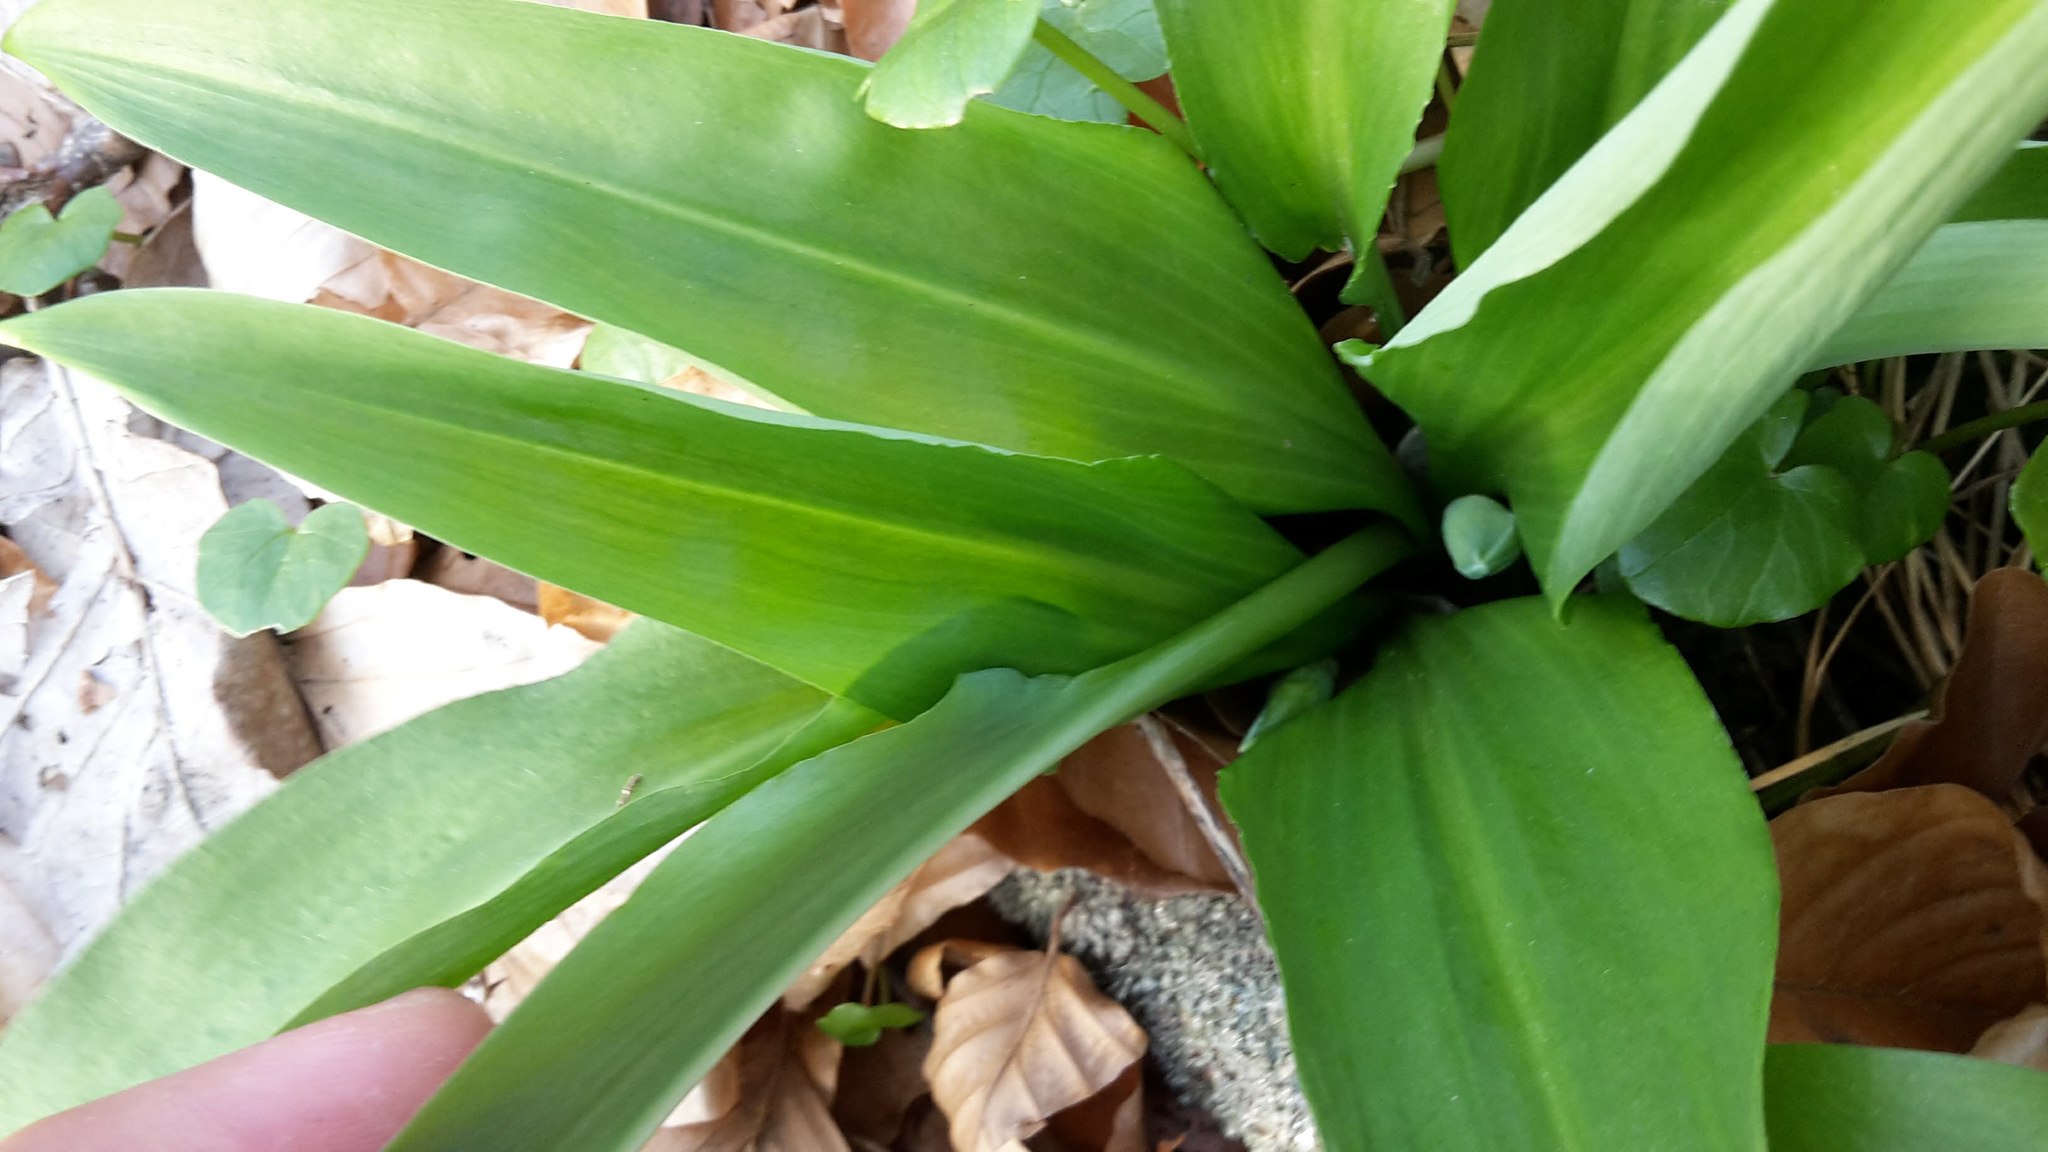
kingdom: Plantae
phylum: Tracheophyta
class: Liliopsida
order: Asparagales
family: Amaryllidaceae
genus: Allium
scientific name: Allium ursinum
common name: Ramsons
